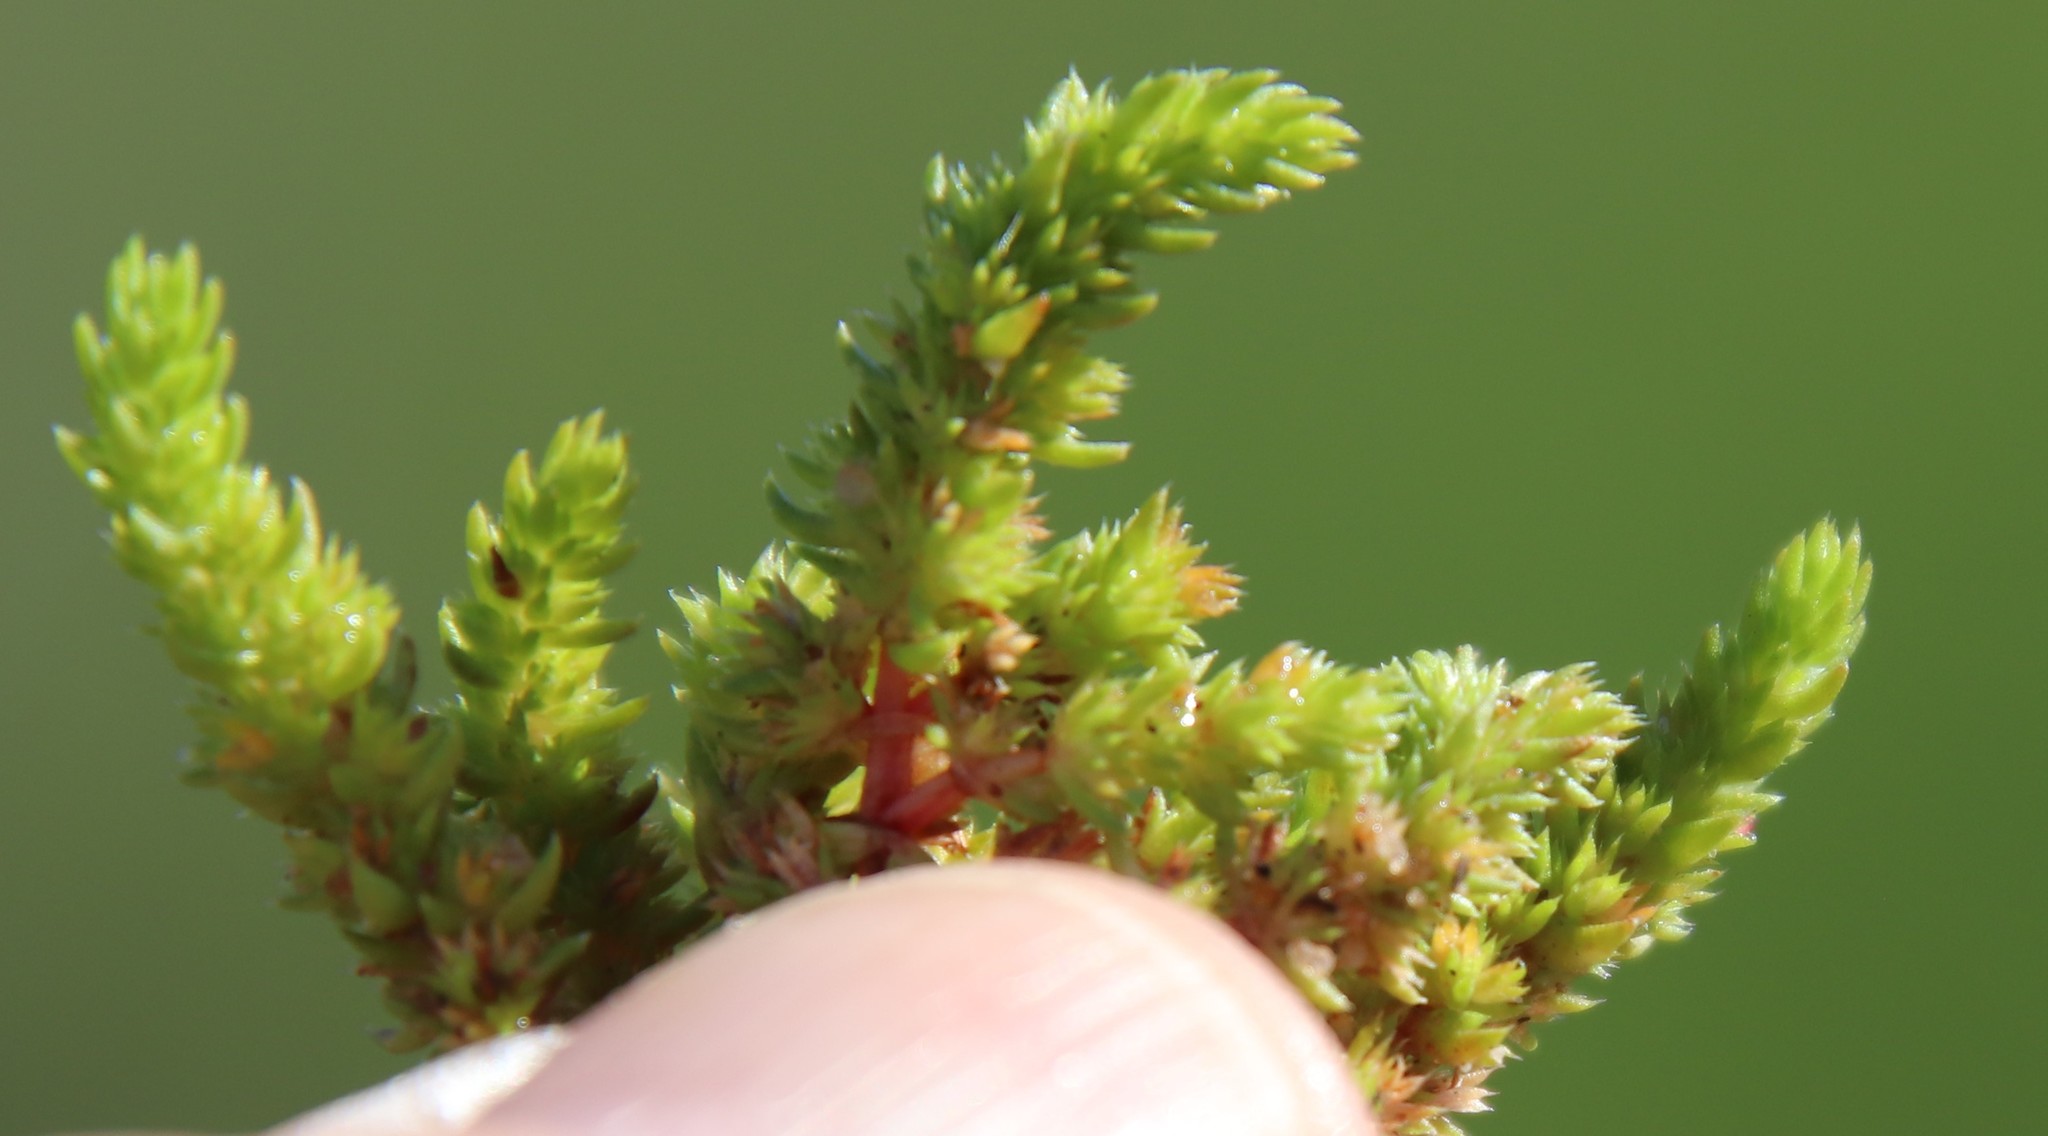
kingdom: Plantae
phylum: Tracheophyta
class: Magnoliopsida
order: Saxifragales
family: Crassulaceae
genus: Crassula
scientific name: Crassula tillaea
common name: Mossy stonecrop
